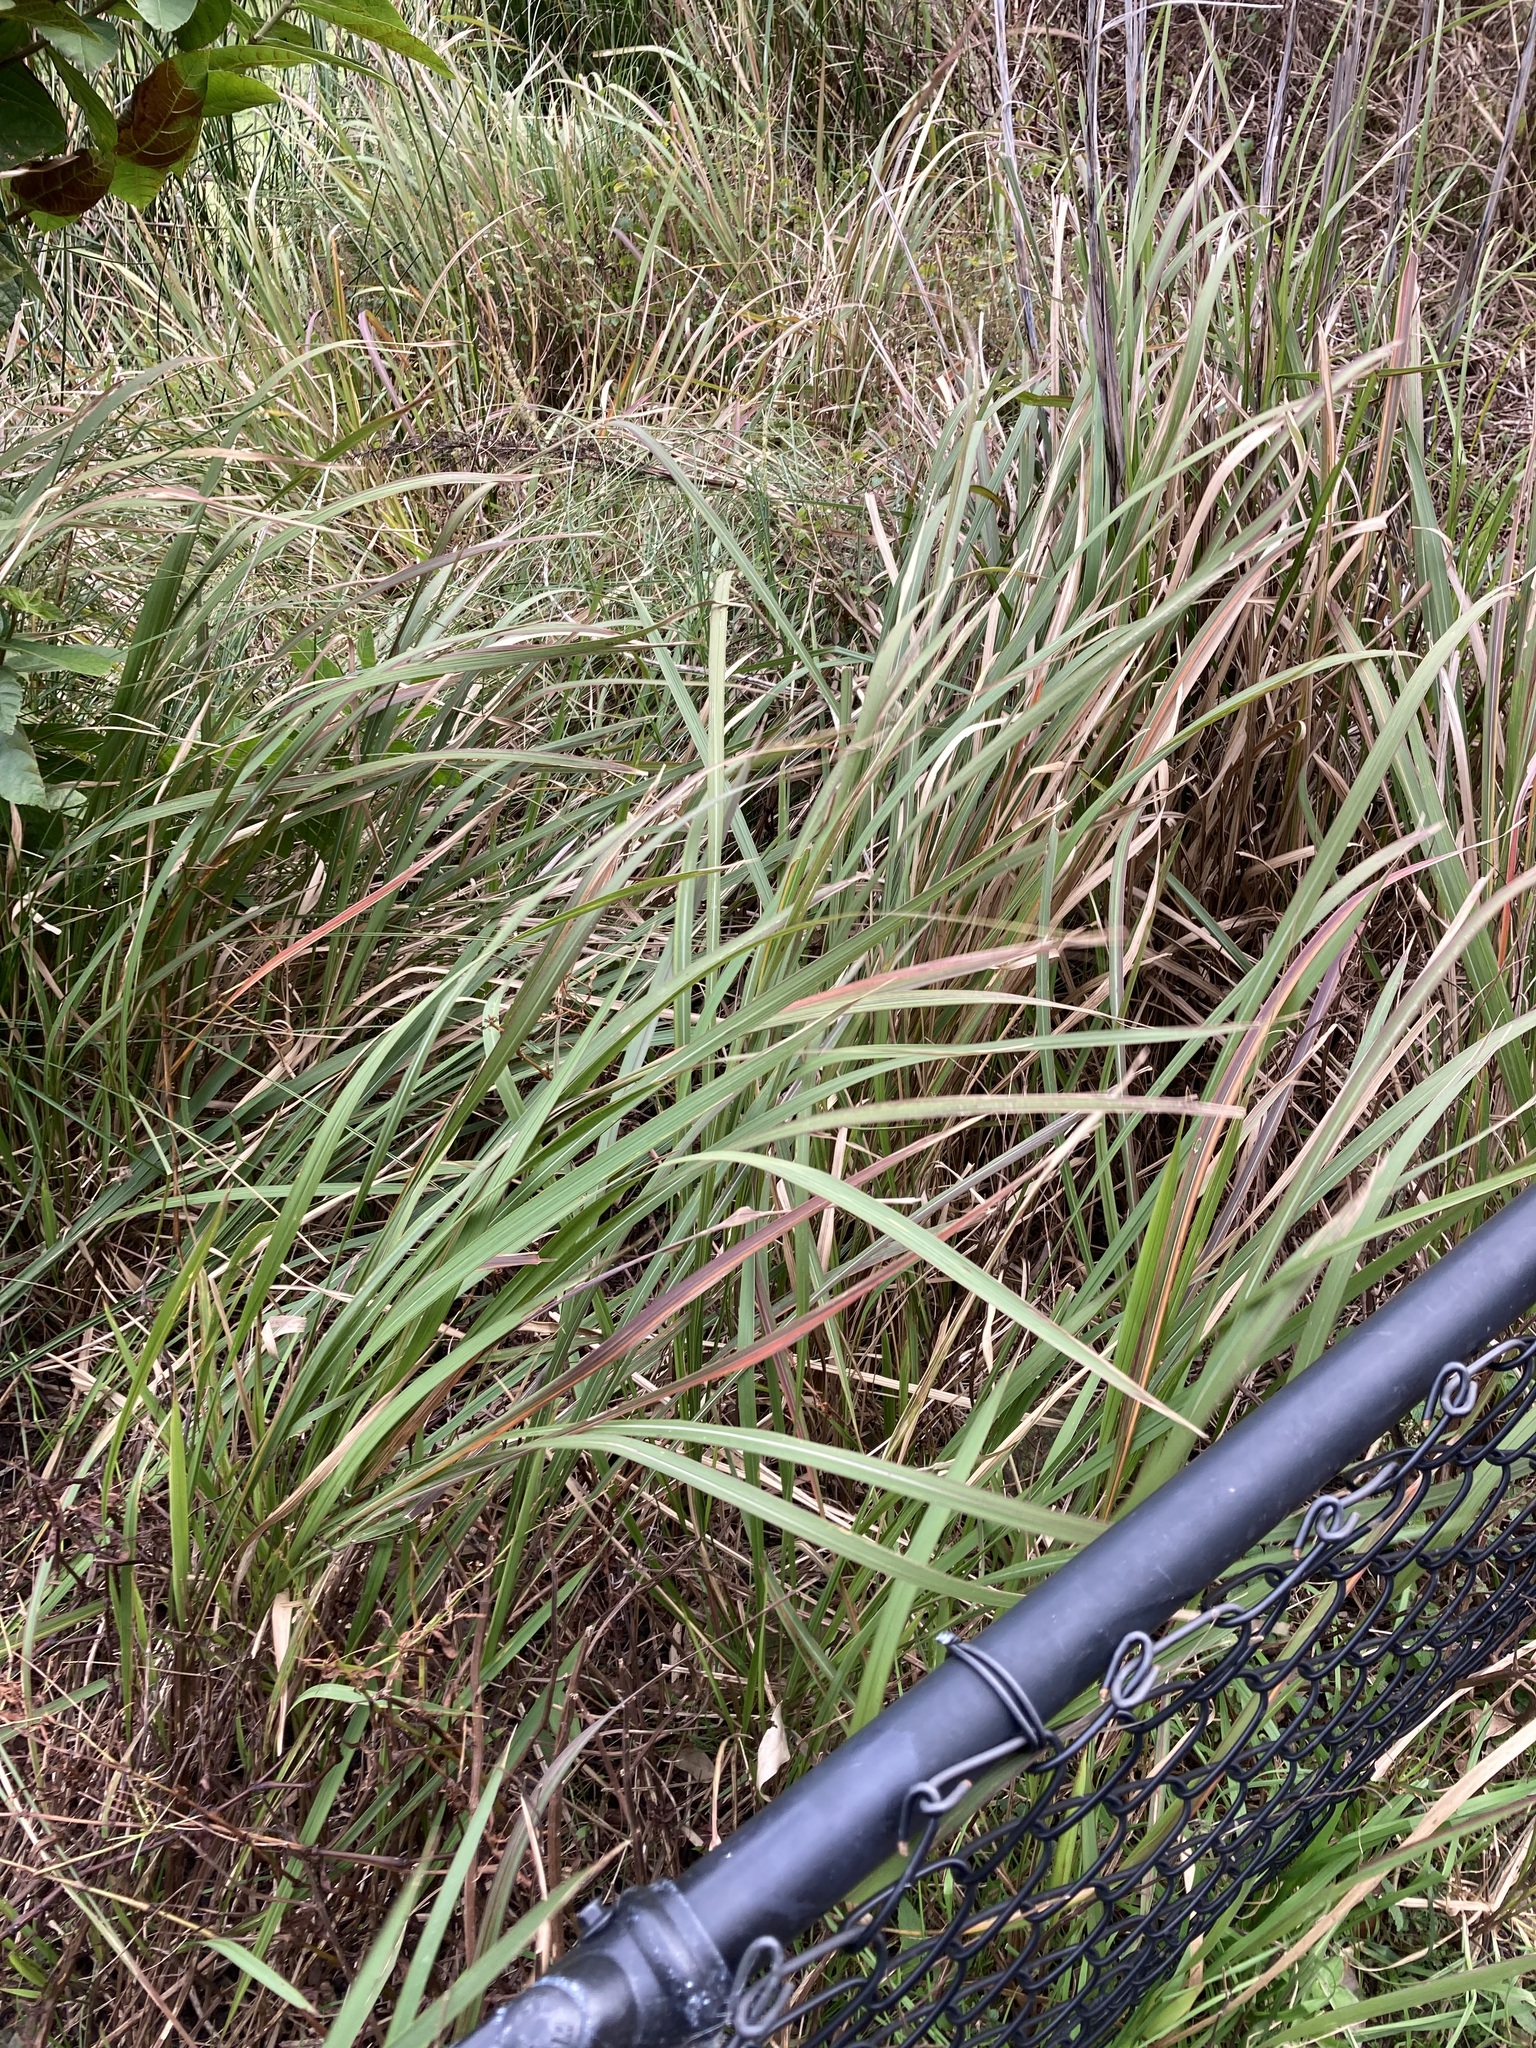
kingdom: Plantae
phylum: Tracheophyta
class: Liliopsida
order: Poales
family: Poaceae
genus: Imperata
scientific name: Imperata cylindrica
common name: Cogongrass
